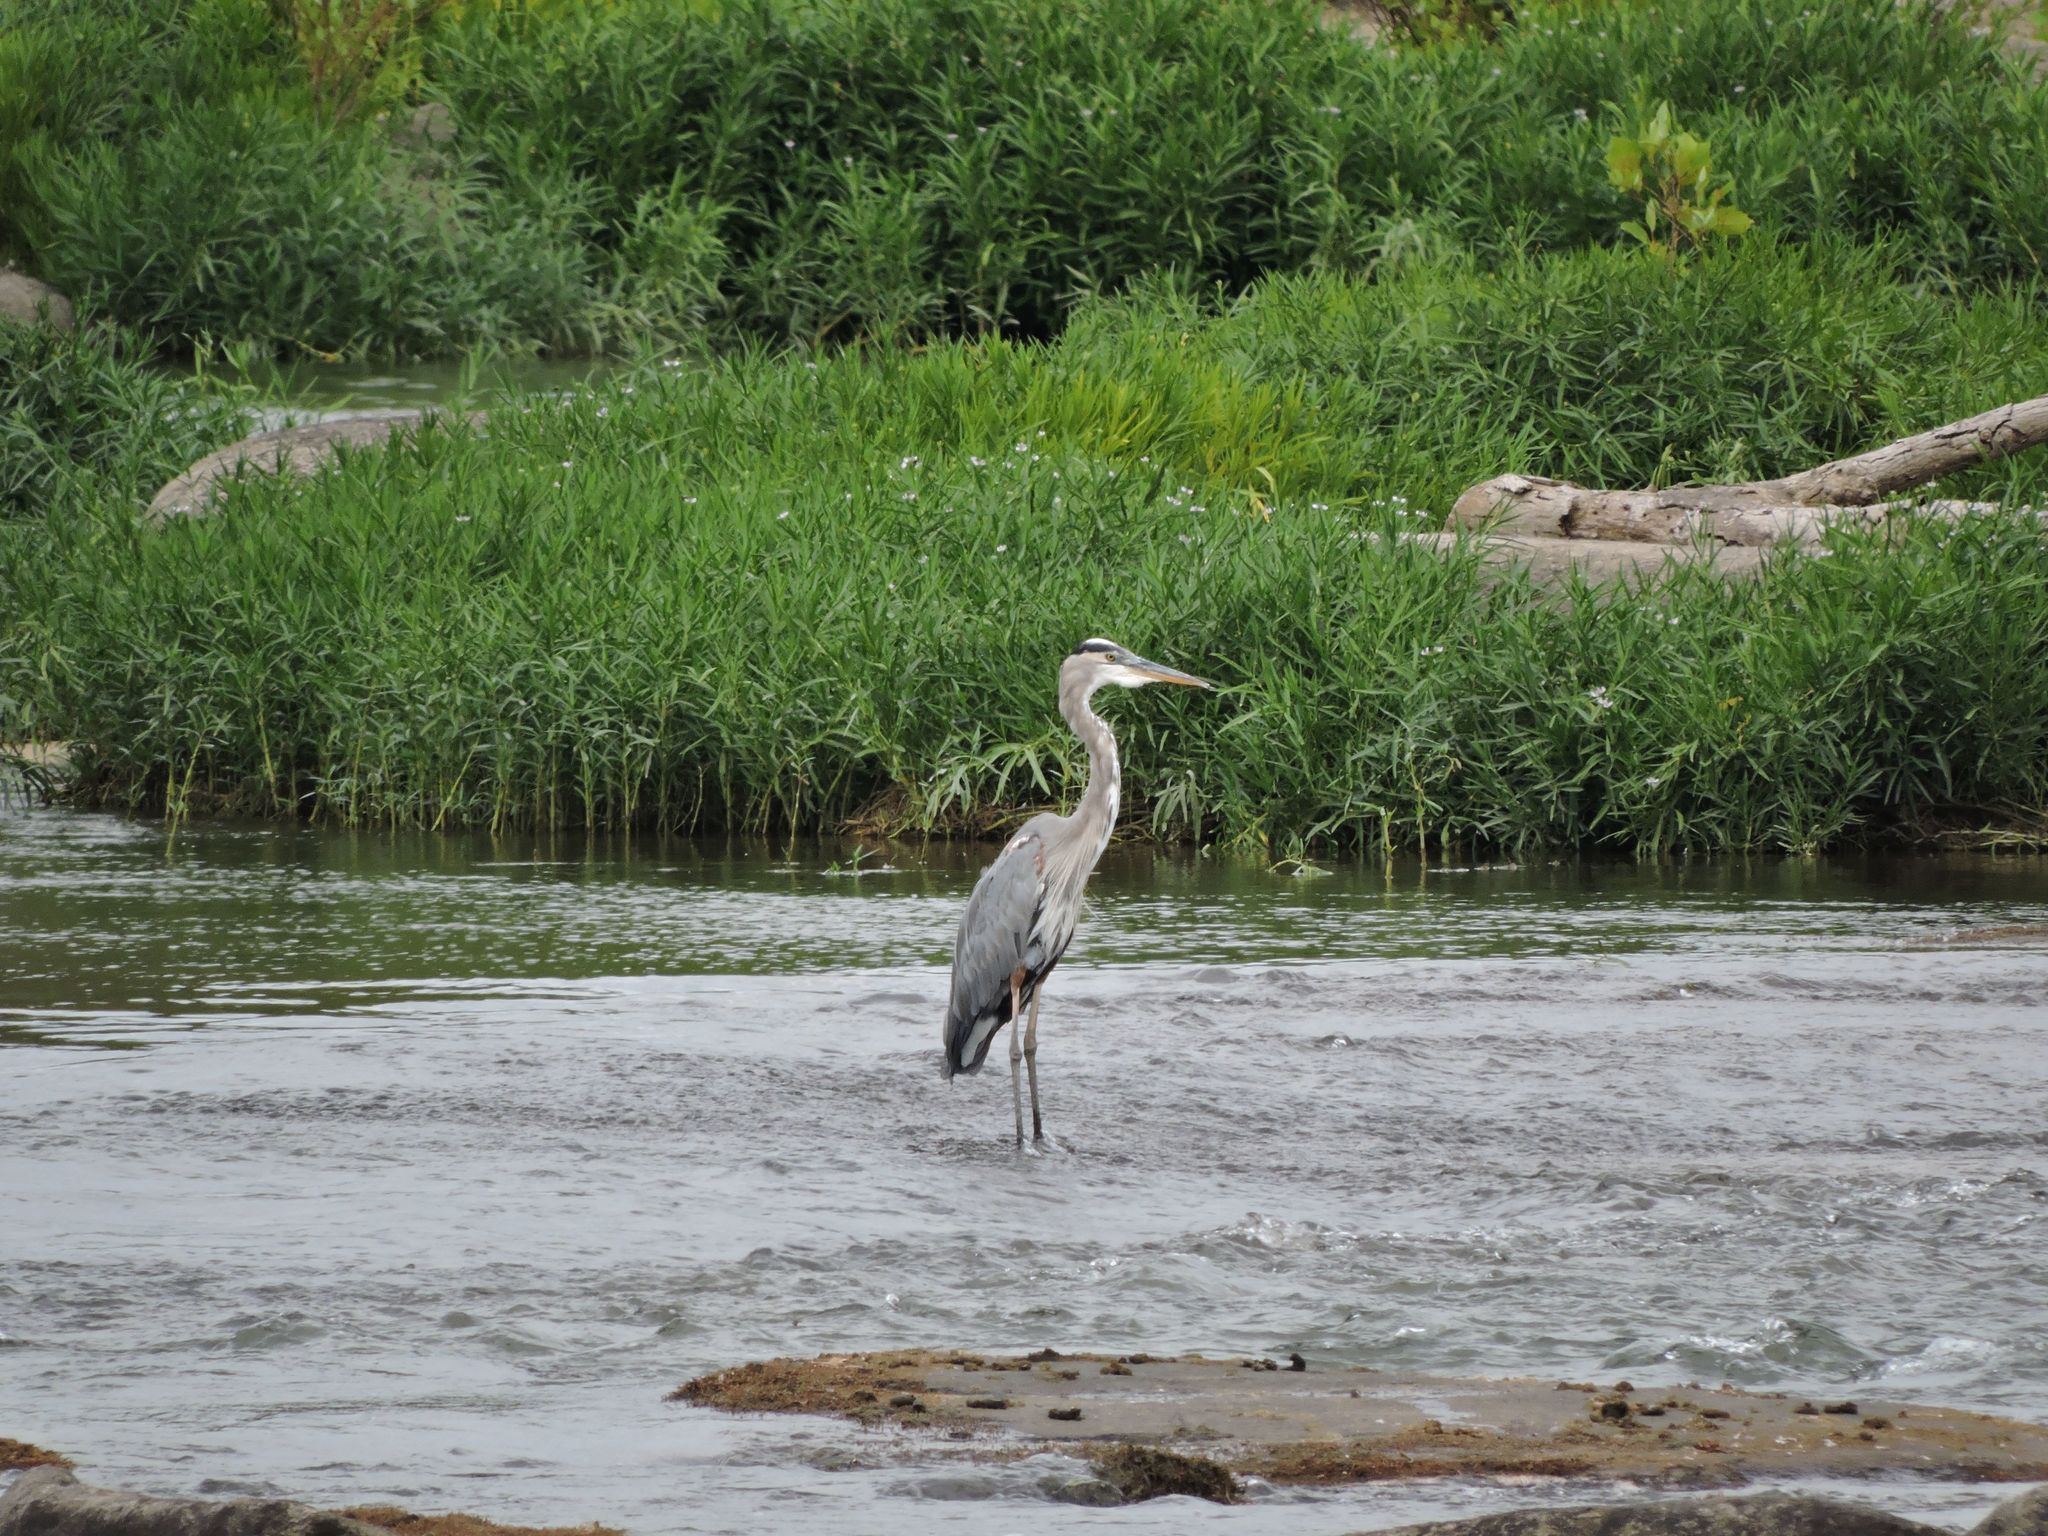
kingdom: Animalia
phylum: Chordata
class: Aves
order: Pelecaniformes
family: Ardeidae
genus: Ardea
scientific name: Ardea herodias
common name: Great blue heron
